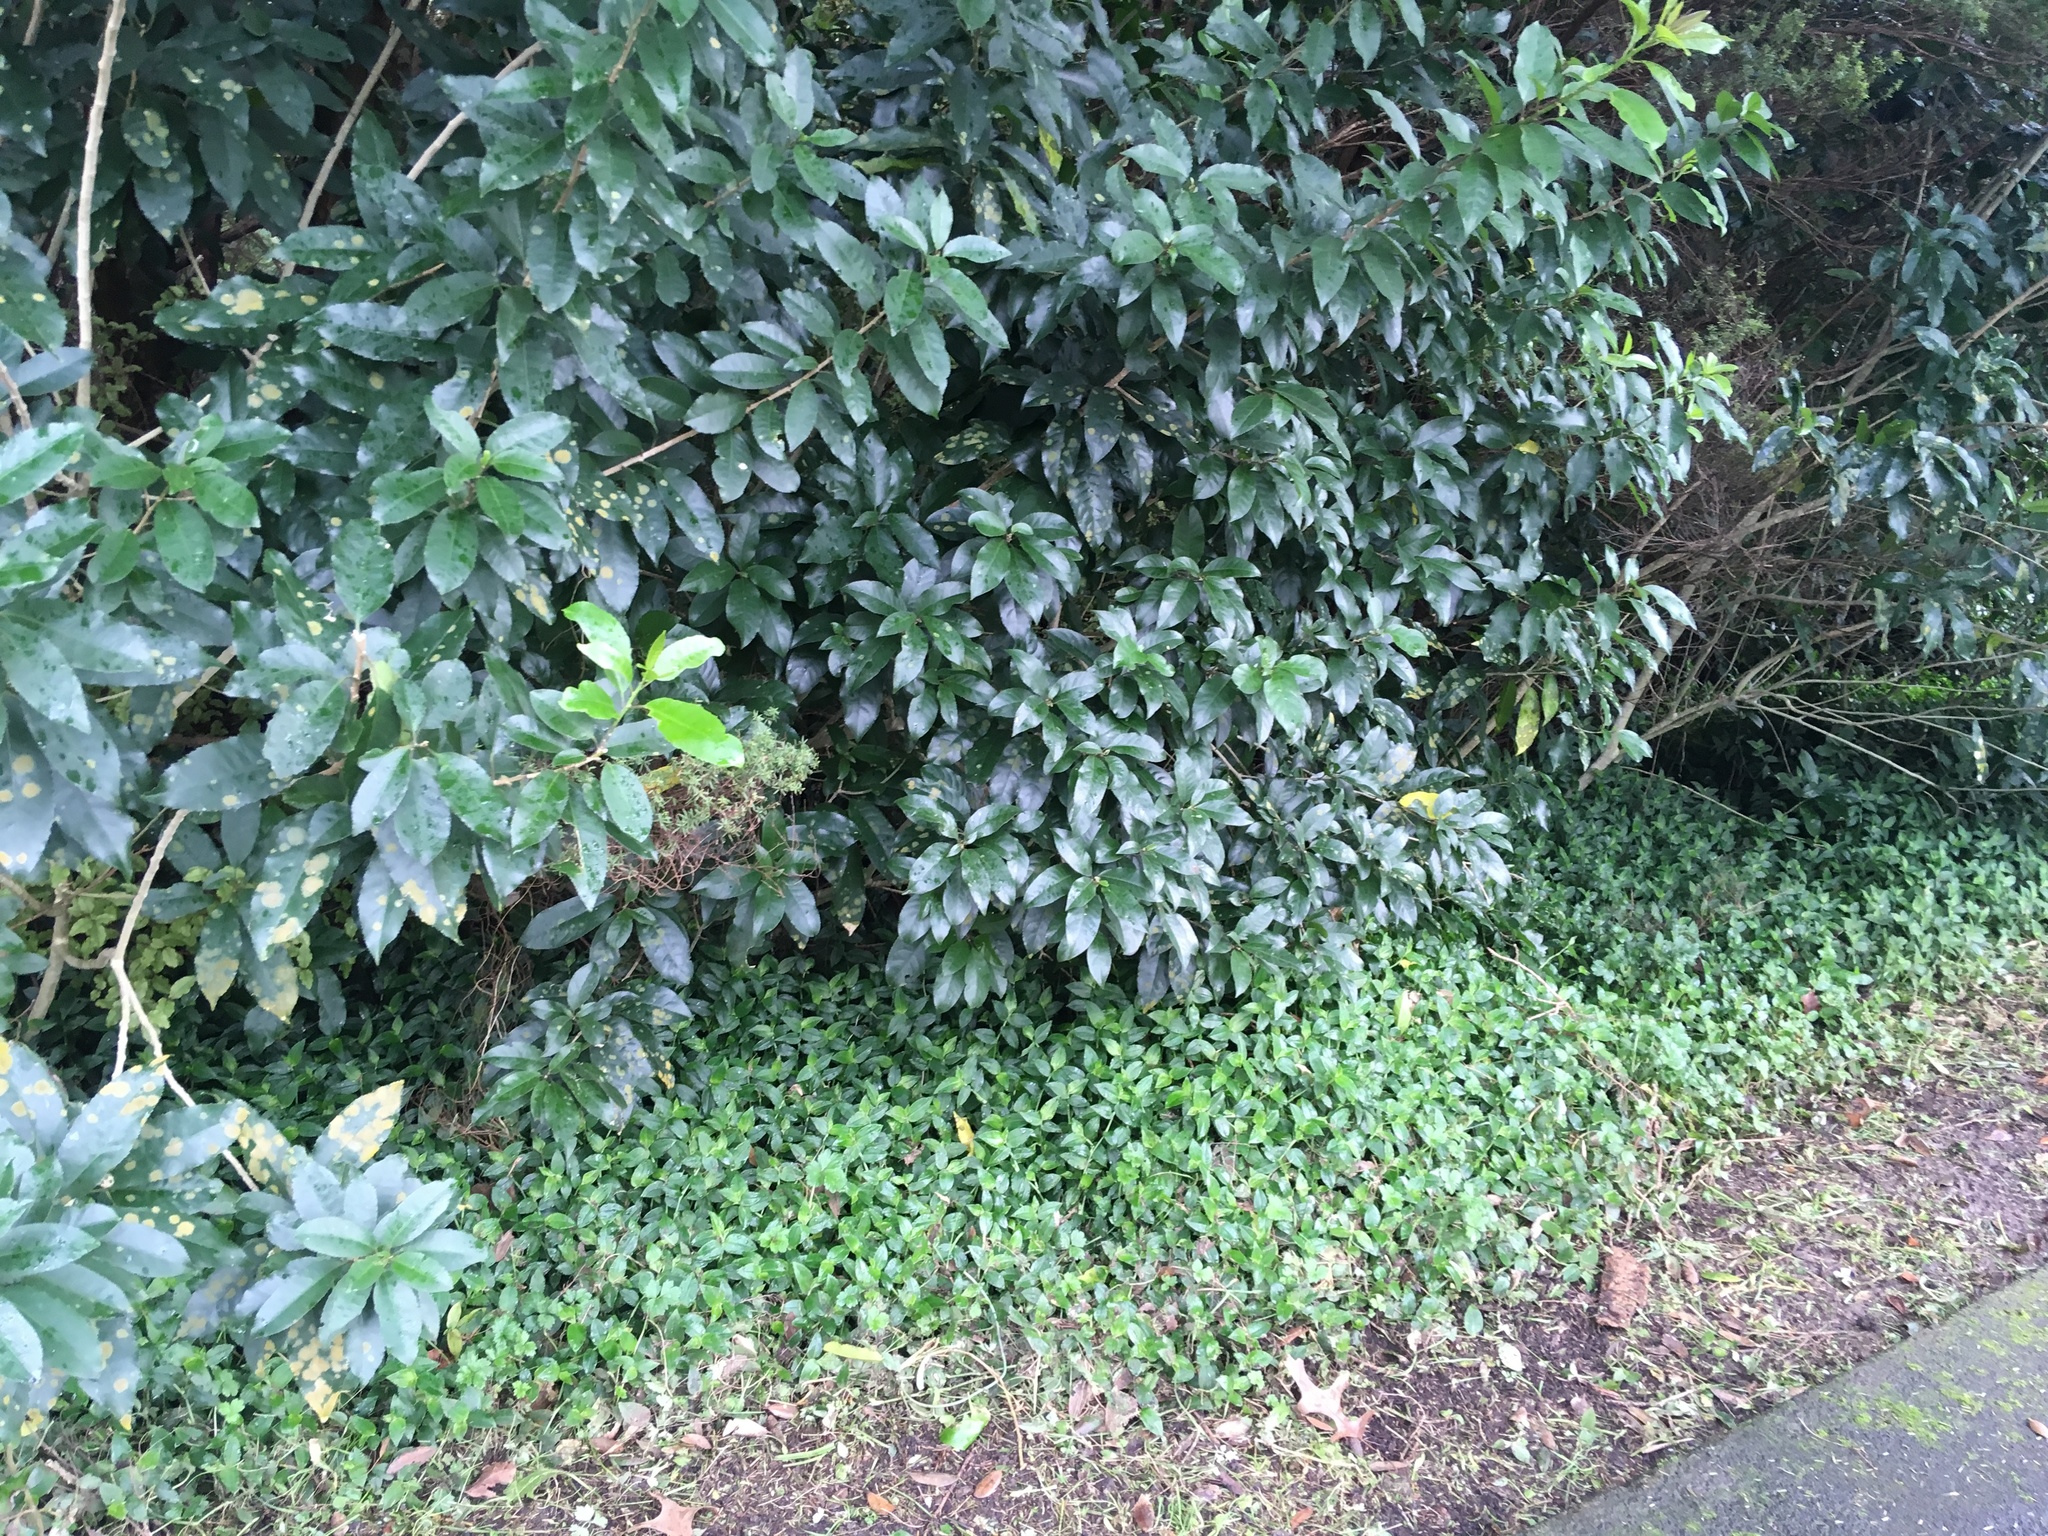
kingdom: Plantae
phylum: Tracheophyta
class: Liliopsida
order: Commelinales
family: Commelinaceae
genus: Tradescantia
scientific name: Tradescantia fluminensis
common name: Wandering-jew
